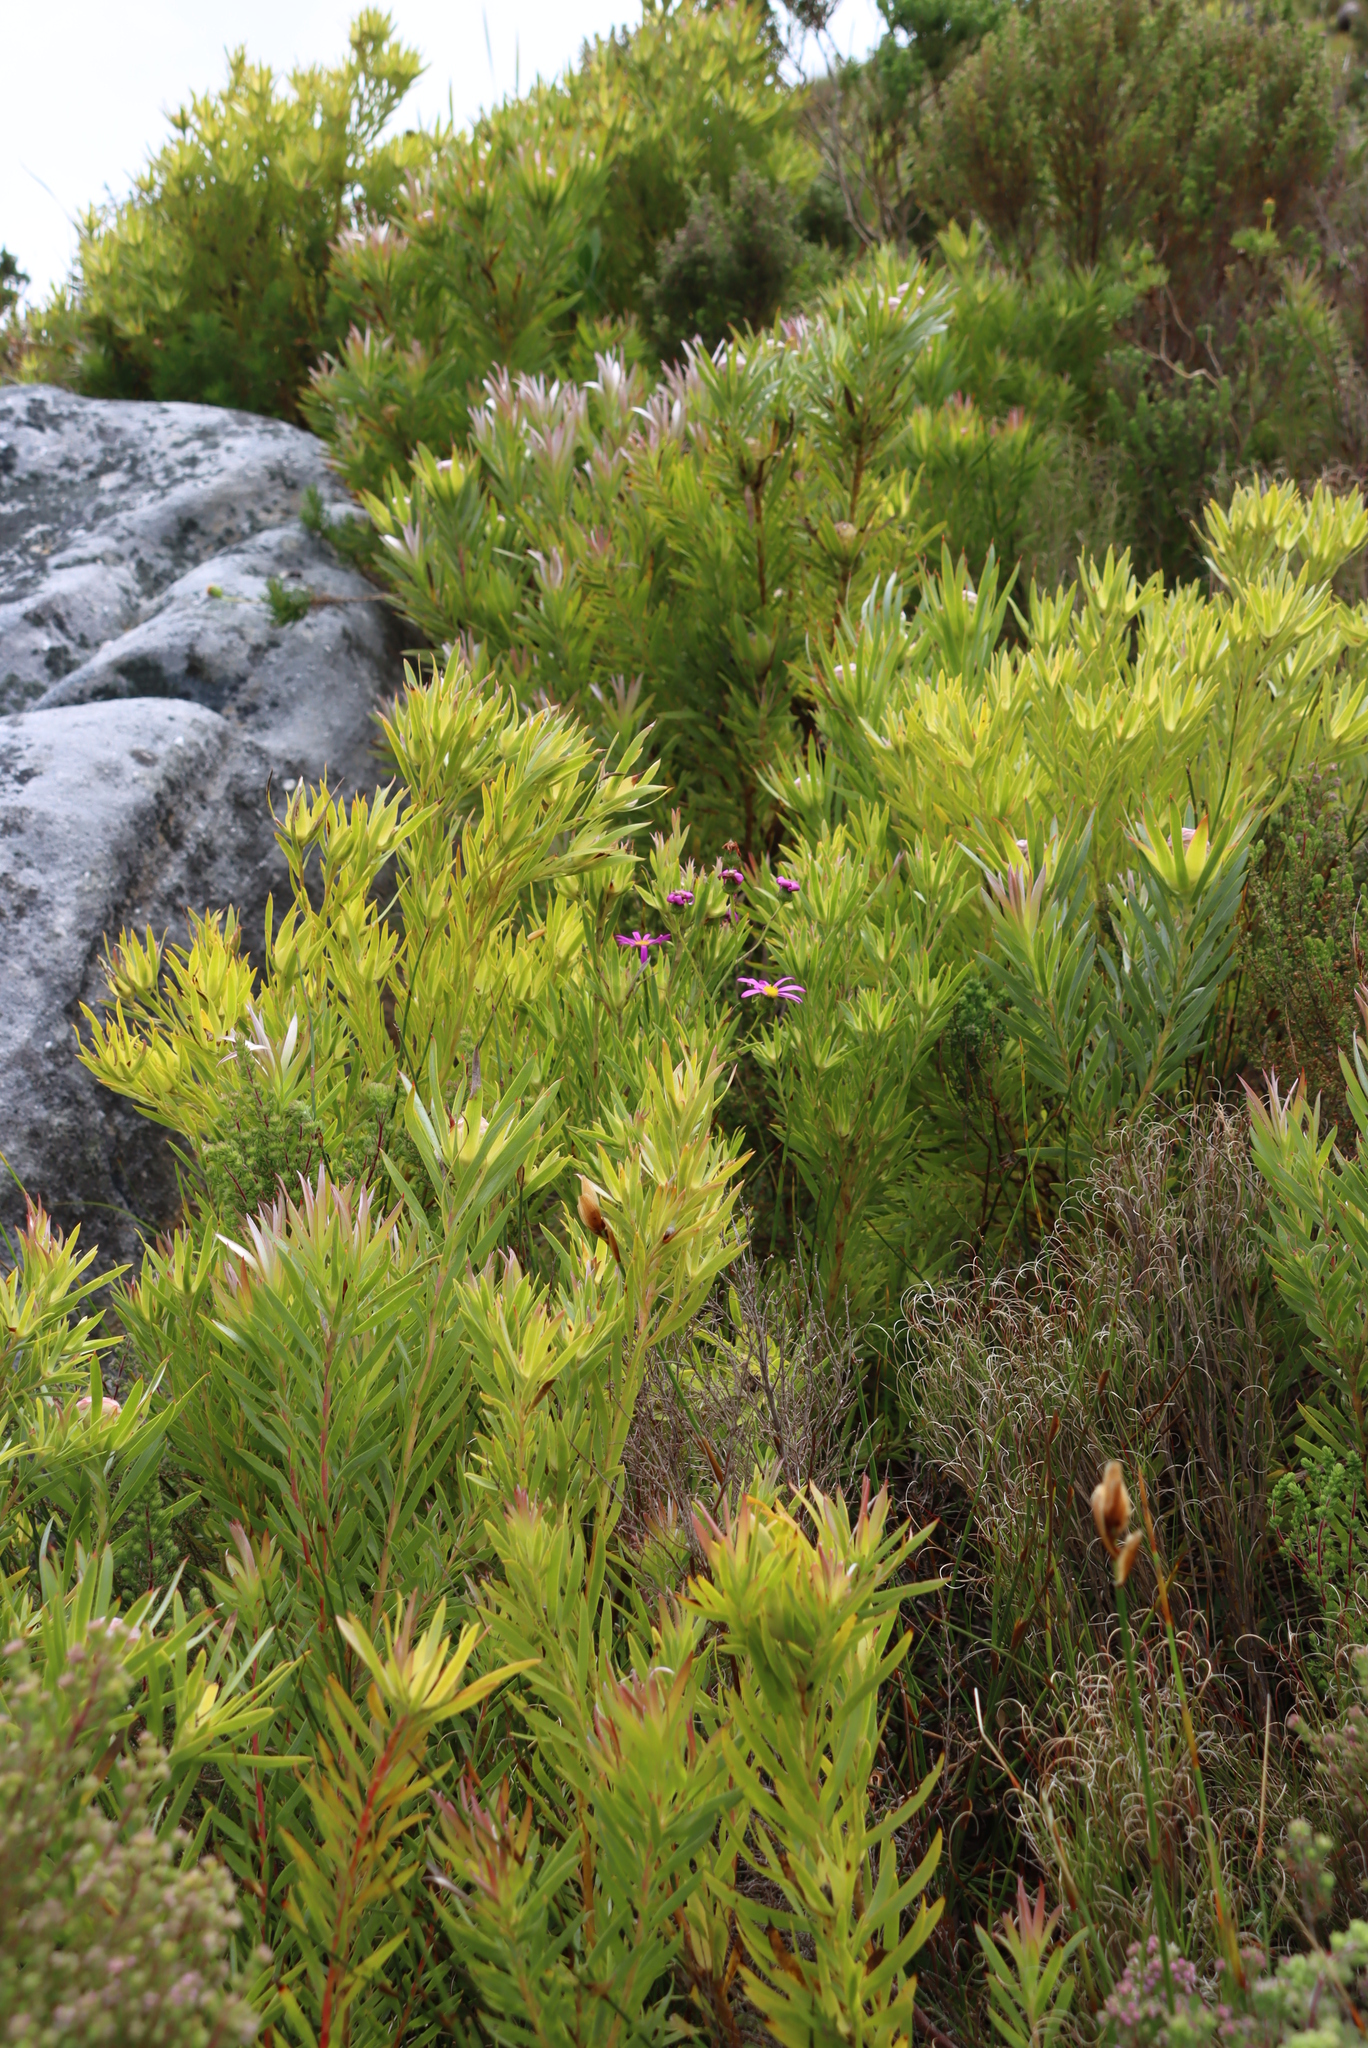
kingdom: Plantae
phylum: Tracheophyta
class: Magnoliopsida
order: Proteales
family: Proteaceae
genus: Leucadendron
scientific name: Leucadendron xanthoconus
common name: Sickle-leaf conebush
